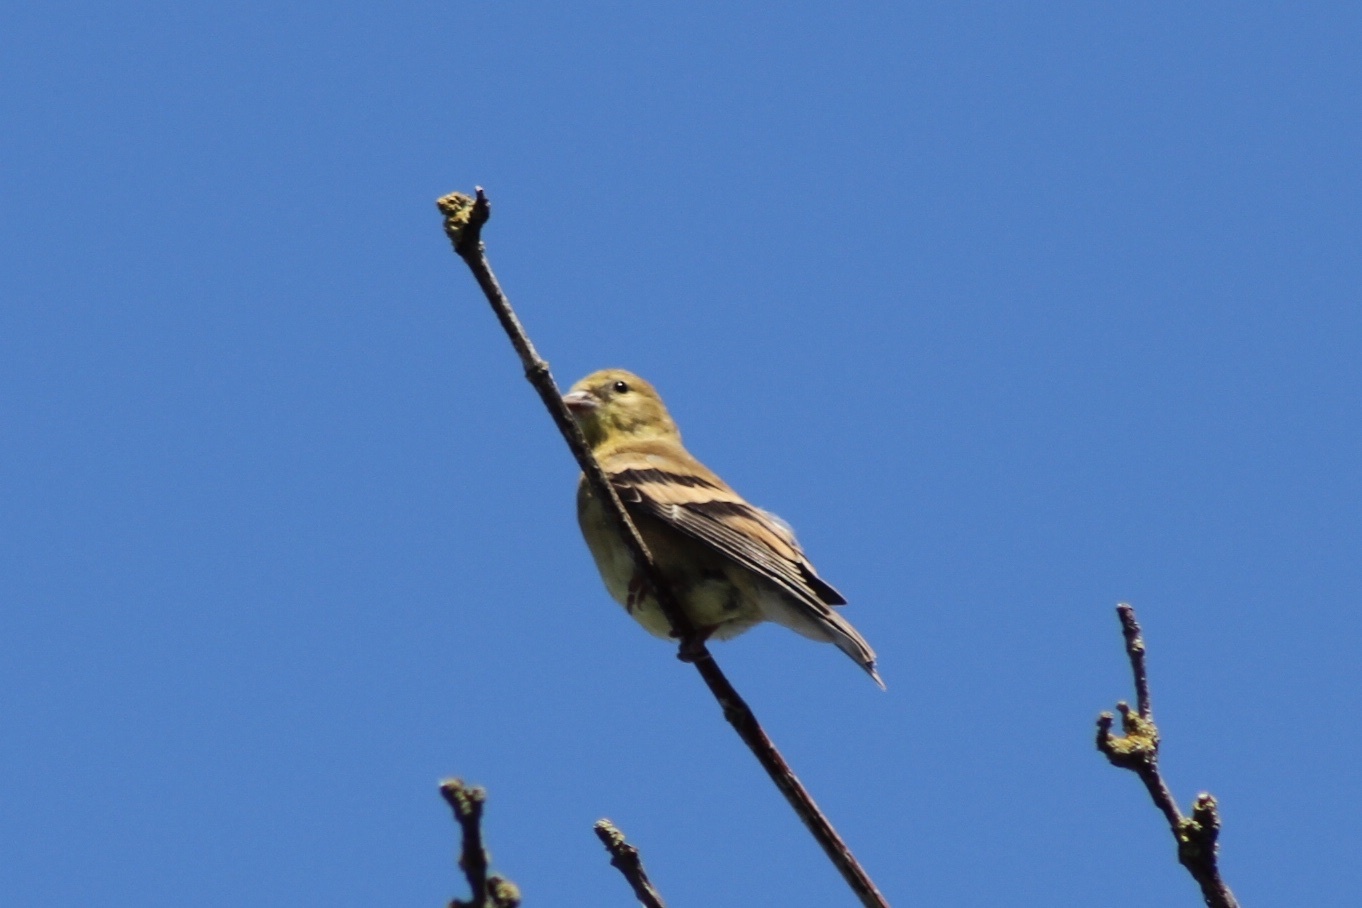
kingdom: Animalia
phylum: Chordata
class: Aves
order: Passeriformes
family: Fringillidae
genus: Spinus
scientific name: Spinus tristis
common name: American goldfinch
